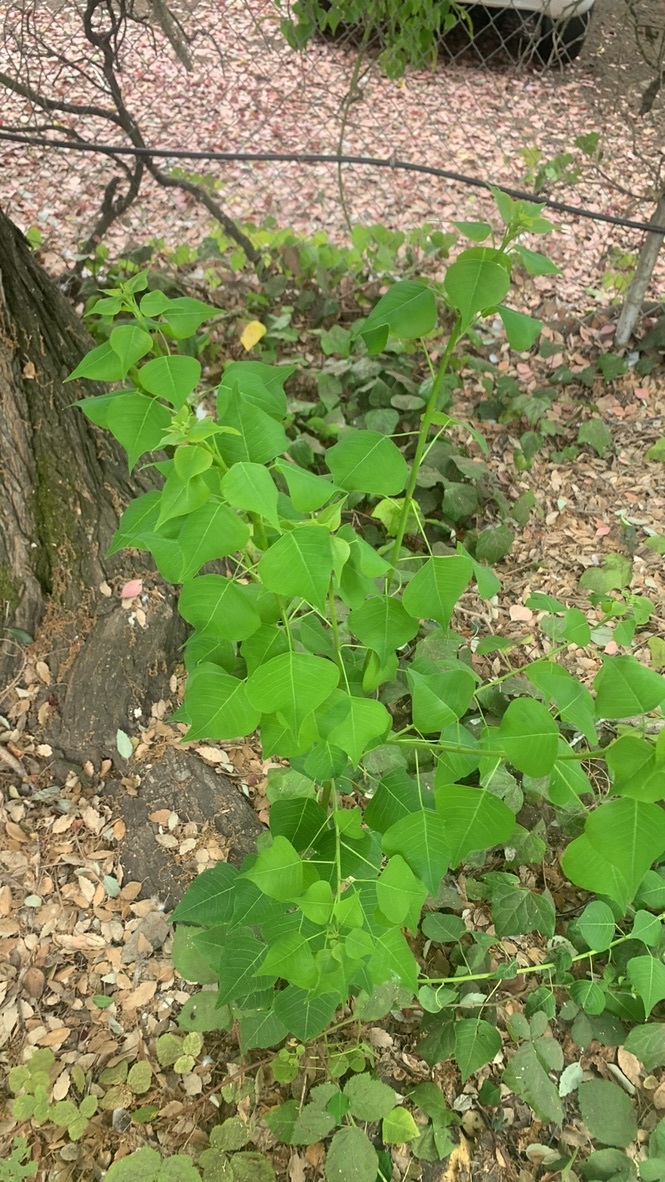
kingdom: Plantae
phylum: Tracheophyta
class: Magnoliopsida
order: Malpighiales
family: Euphorbiaceae
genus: Triadica
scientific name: Triadica sebifera
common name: Chinese tallow
